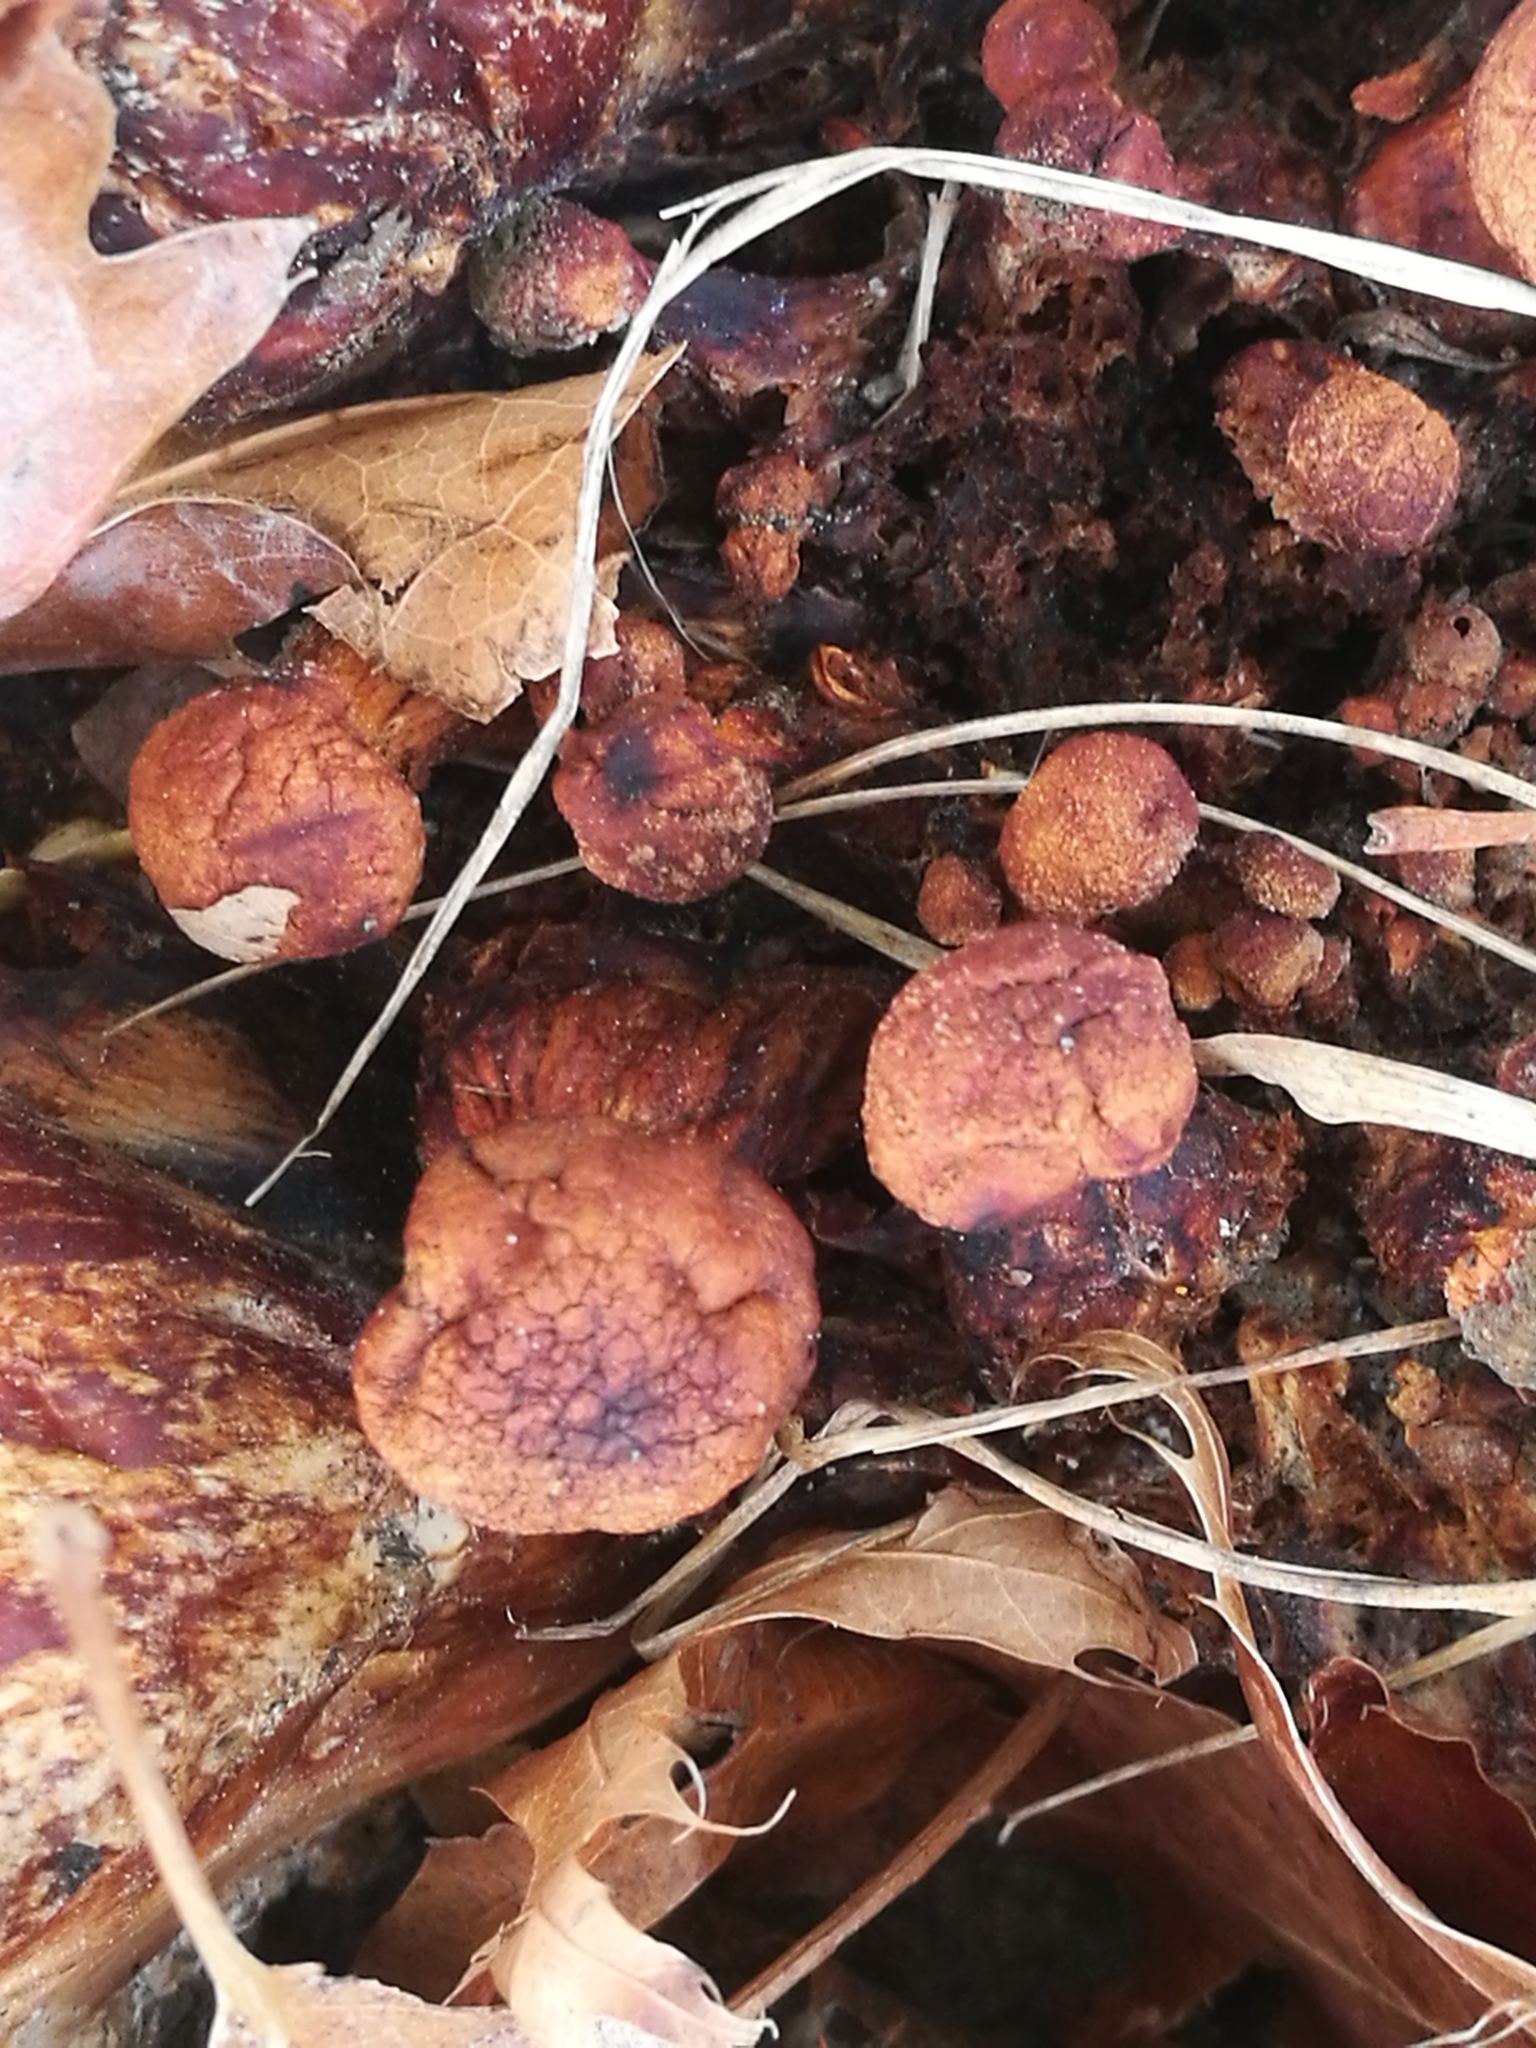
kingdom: Fungi
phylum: Basidiomycota
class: Agaricomycetes
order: Agaricales
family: Hymenogastraceae
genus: Gymnopilus
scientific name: Gymnopilus junonius
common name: Spectacular rustgill
